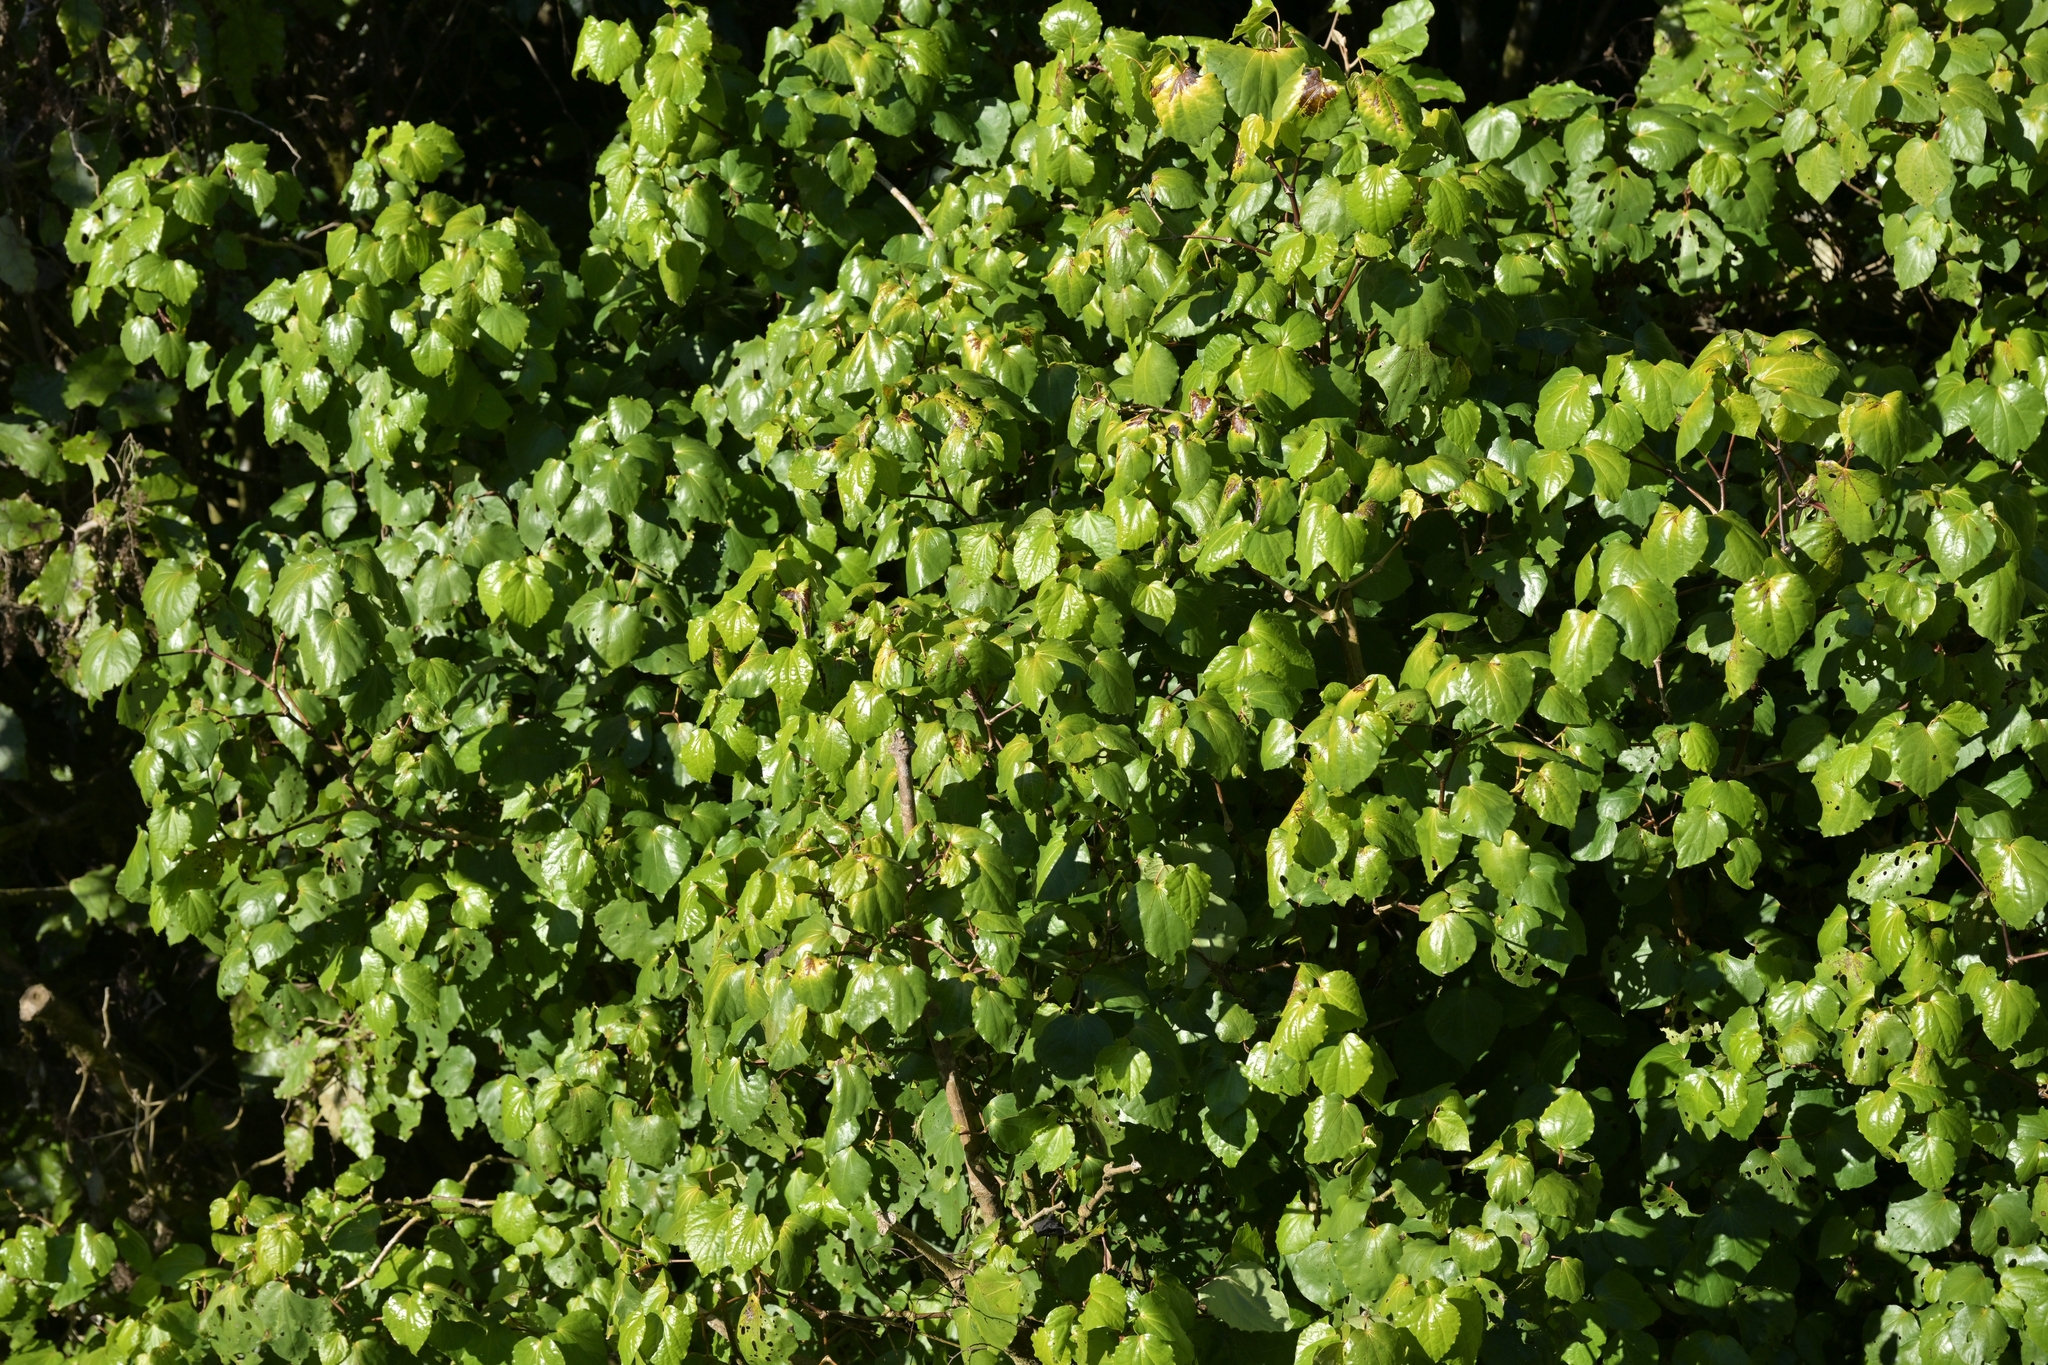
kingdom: Plantae
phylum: Tracheophyta
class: Magnoliopsida
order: Piperales
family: Piperaceae
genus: Macropiper
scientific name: Macropiper excelsum
